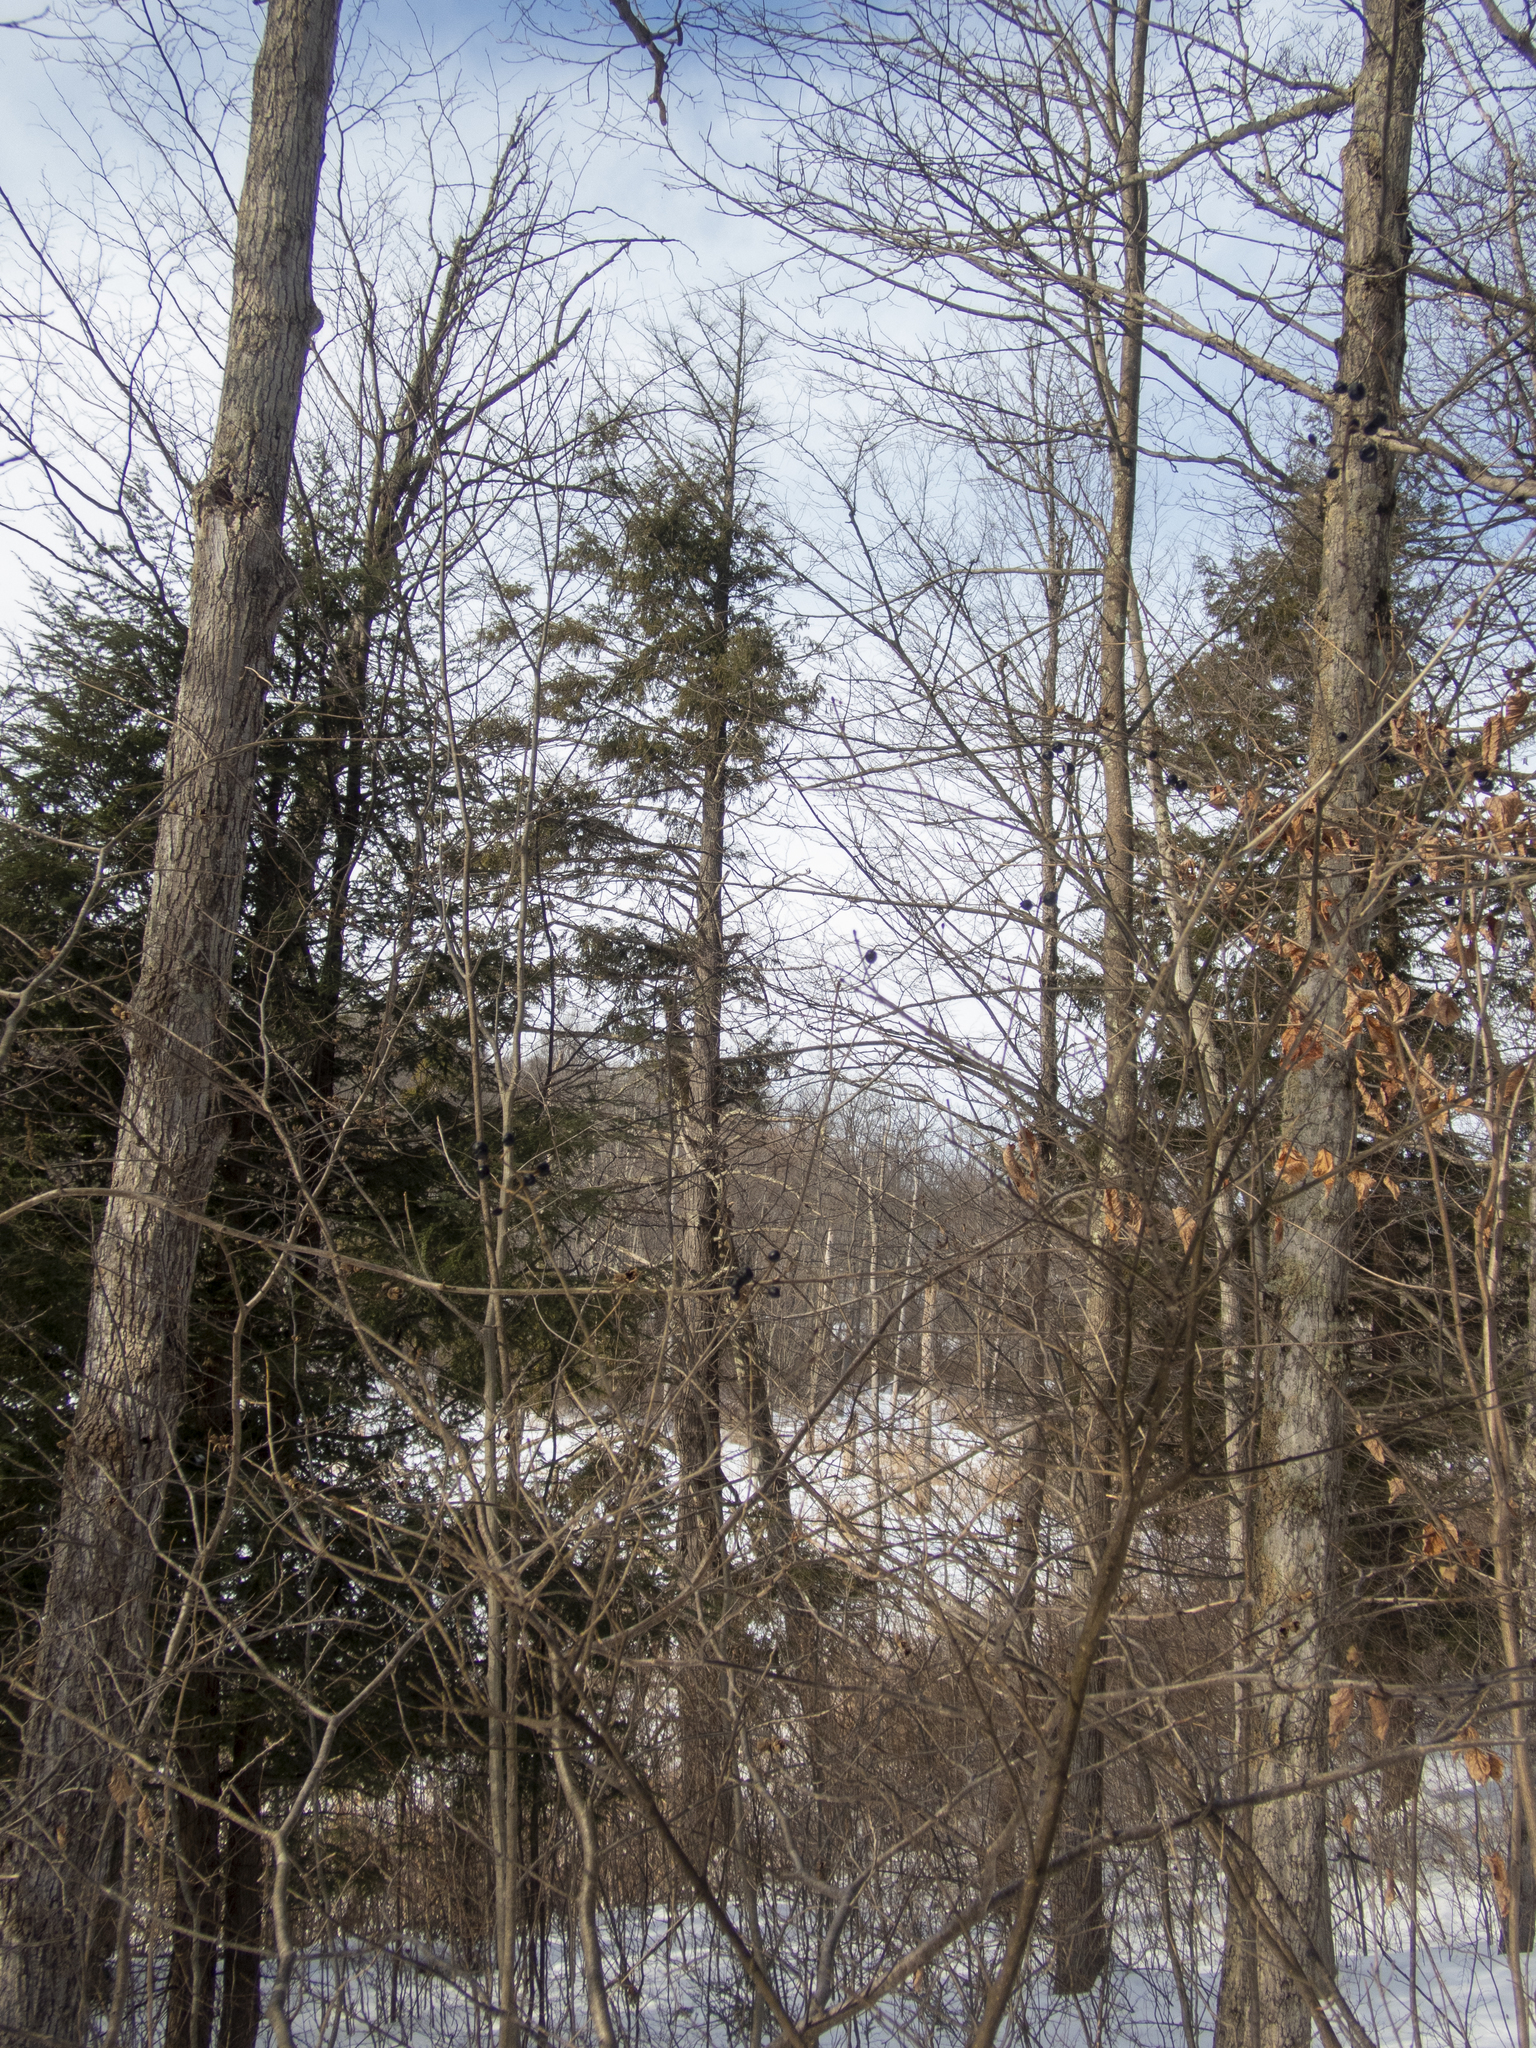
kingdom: Plantae
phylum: Tracheophyta
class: Pinopsida
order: Pinales
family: Pinaceae
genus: Tsuga
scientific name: Tsuga canadensis
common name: Eastern hemlock
